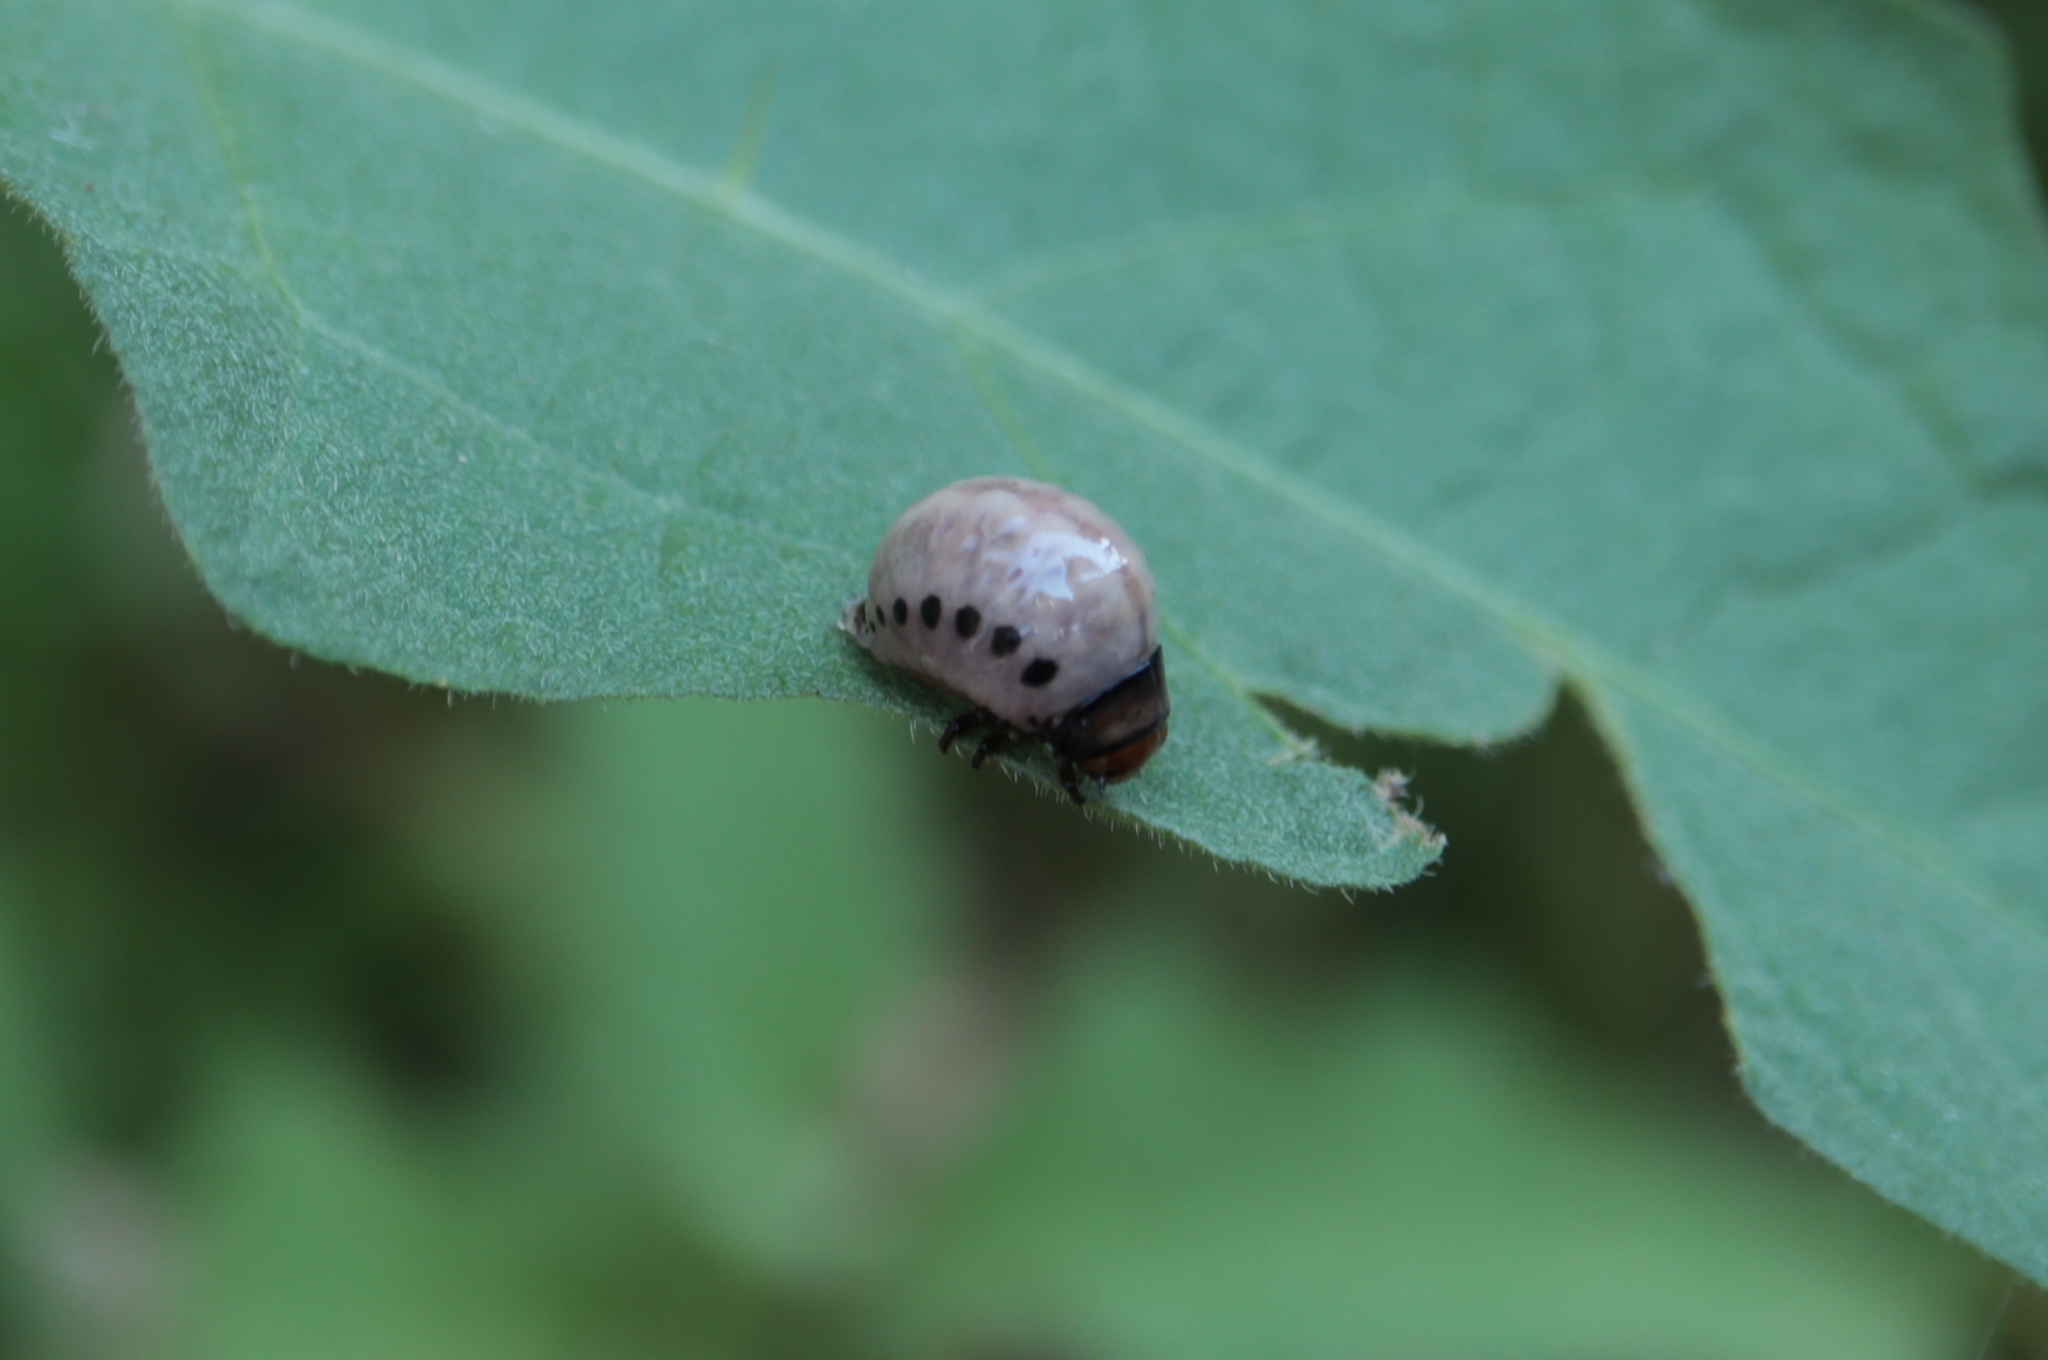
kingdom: Animalia
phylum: Arthropoda
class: Insecta
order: Coleoptera
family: Chrysomelidae
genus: Leptinotarsa
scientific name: Leptinotarsa juncta
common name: False potato beetle
